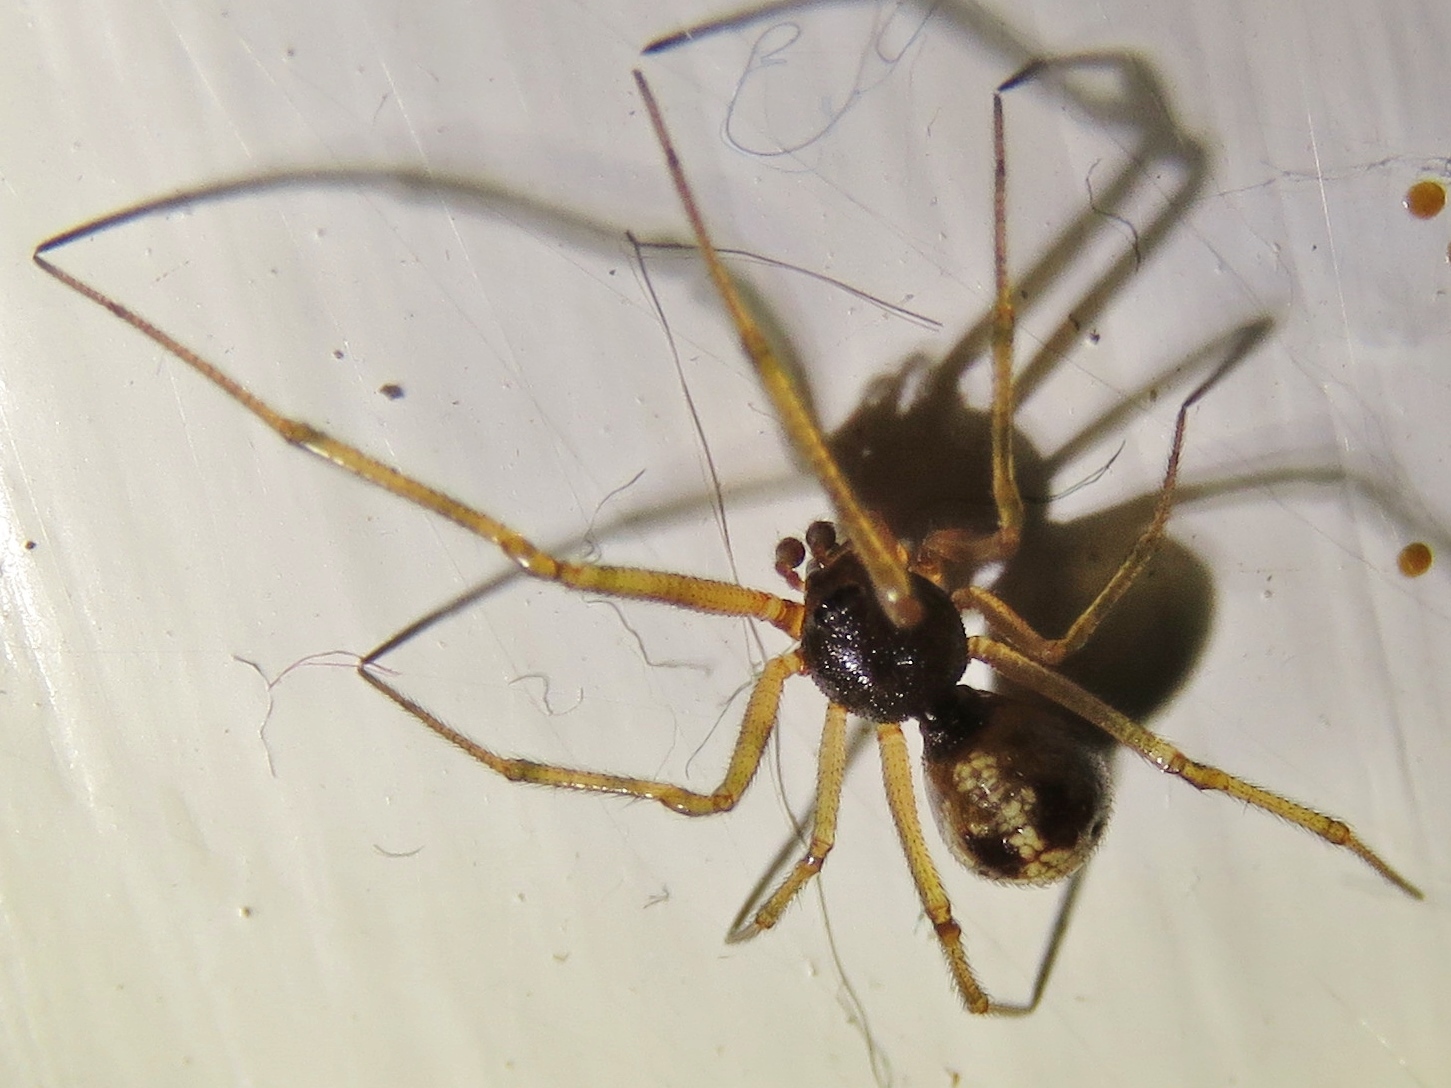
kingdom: Animalia
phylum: Arthropoda
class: Arachnida
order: Araneae
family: Theridiidae
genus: Steatoda
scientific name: Steatoda triangulosa
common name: Triangulate bud spider
